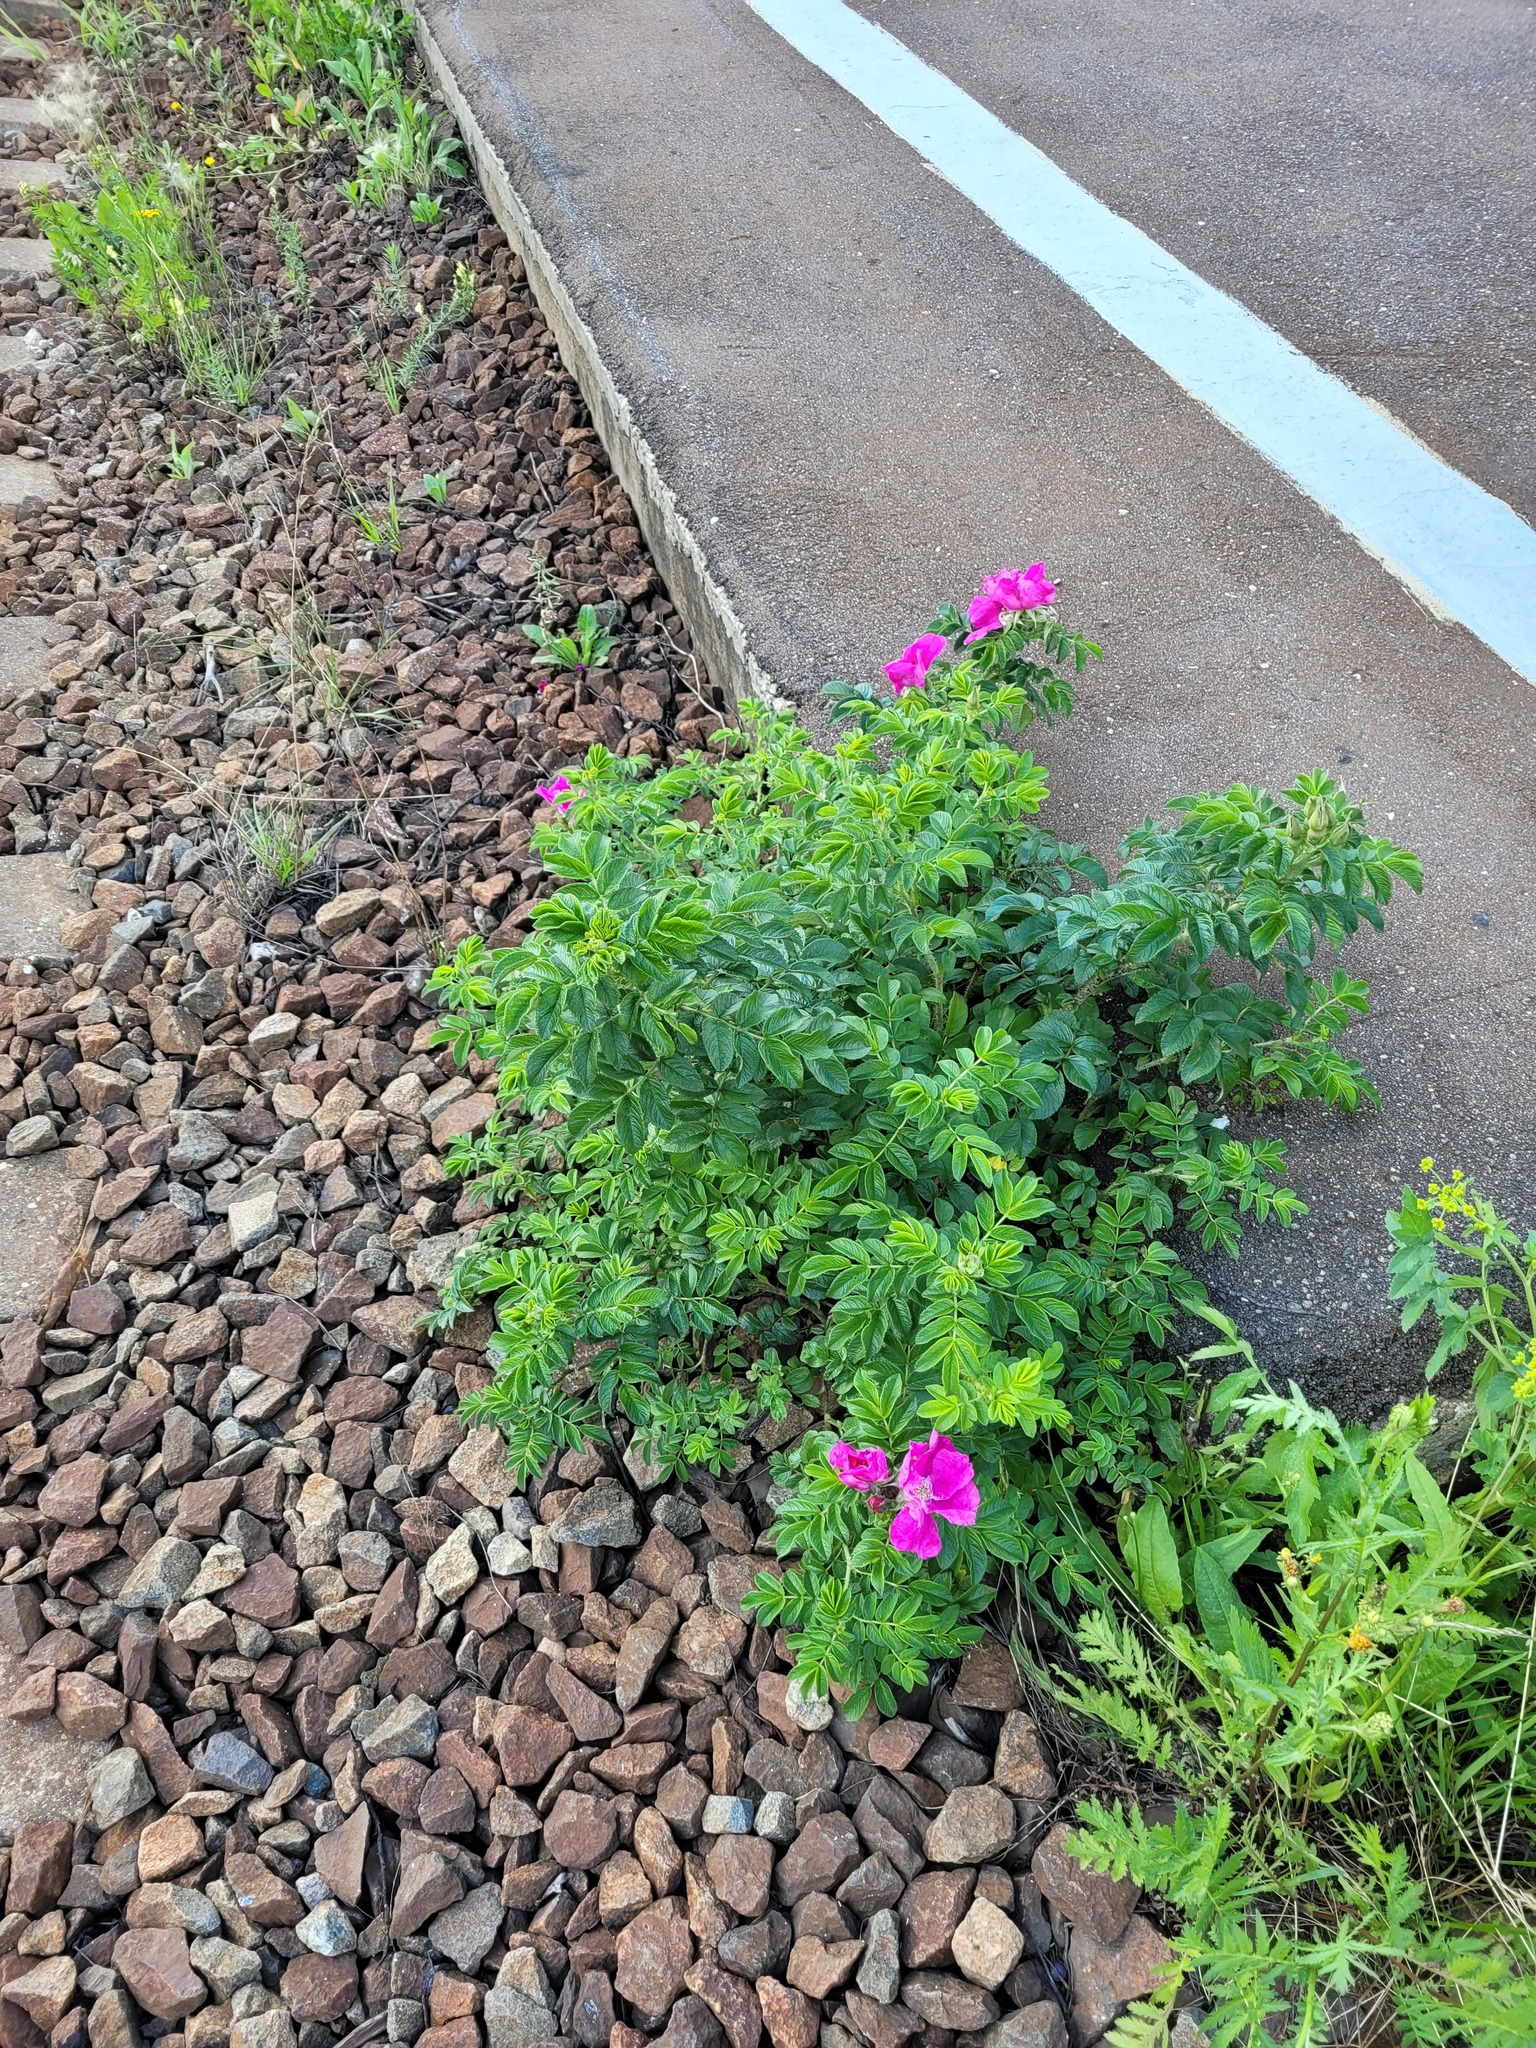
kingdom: Plantae
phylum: Tracheophyta
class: Magnoliopsida
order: Rosales
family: Rosaceae
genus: Rosa
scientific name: Rosa rugosa
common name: Japanese rose
